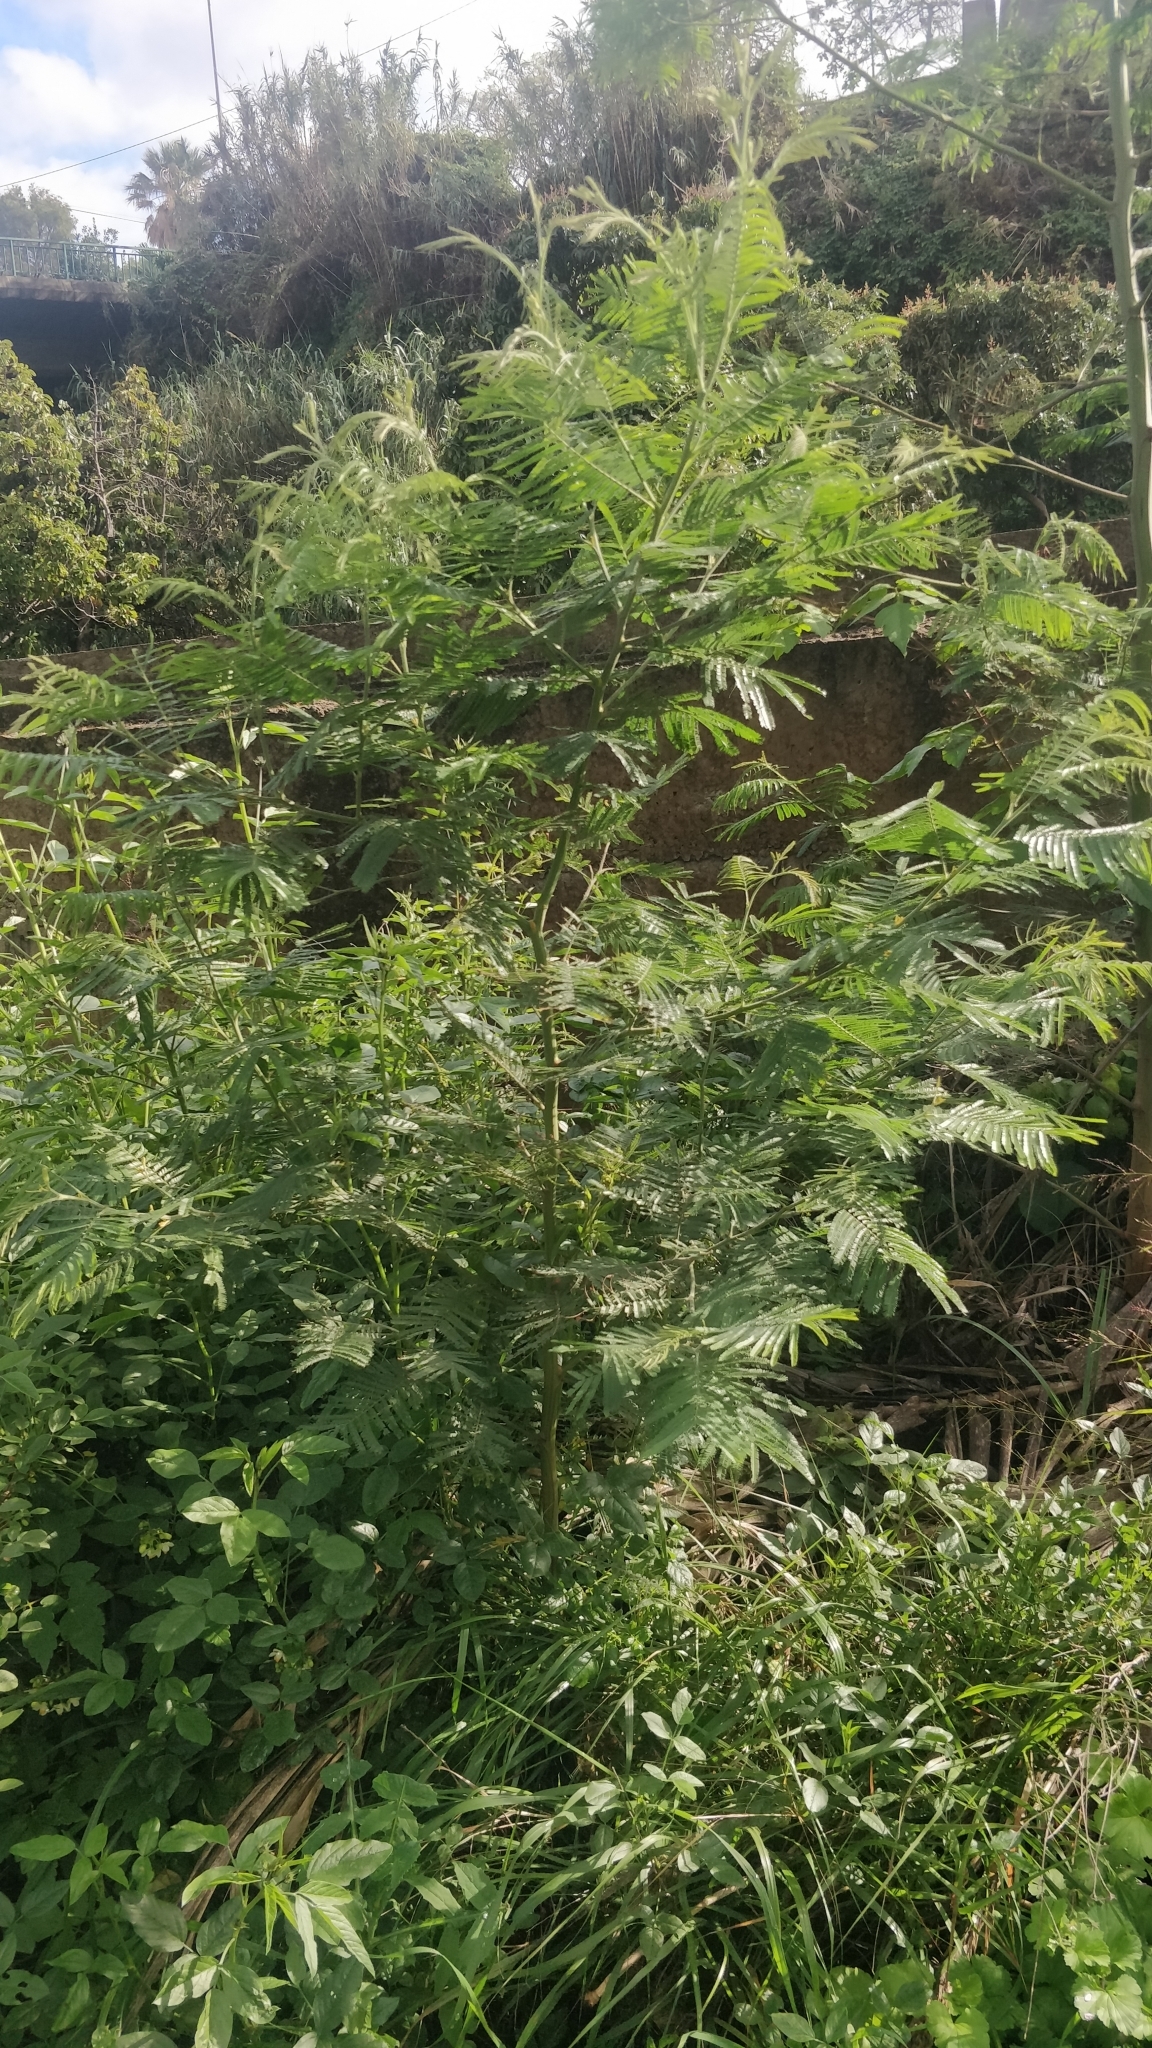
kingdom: Plantae
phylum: Tracheophyta
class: Magnoliopsida
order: Fabales
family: Fabaceae
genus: Acacia
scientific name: Acacia mearnsii
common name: Black wattle
